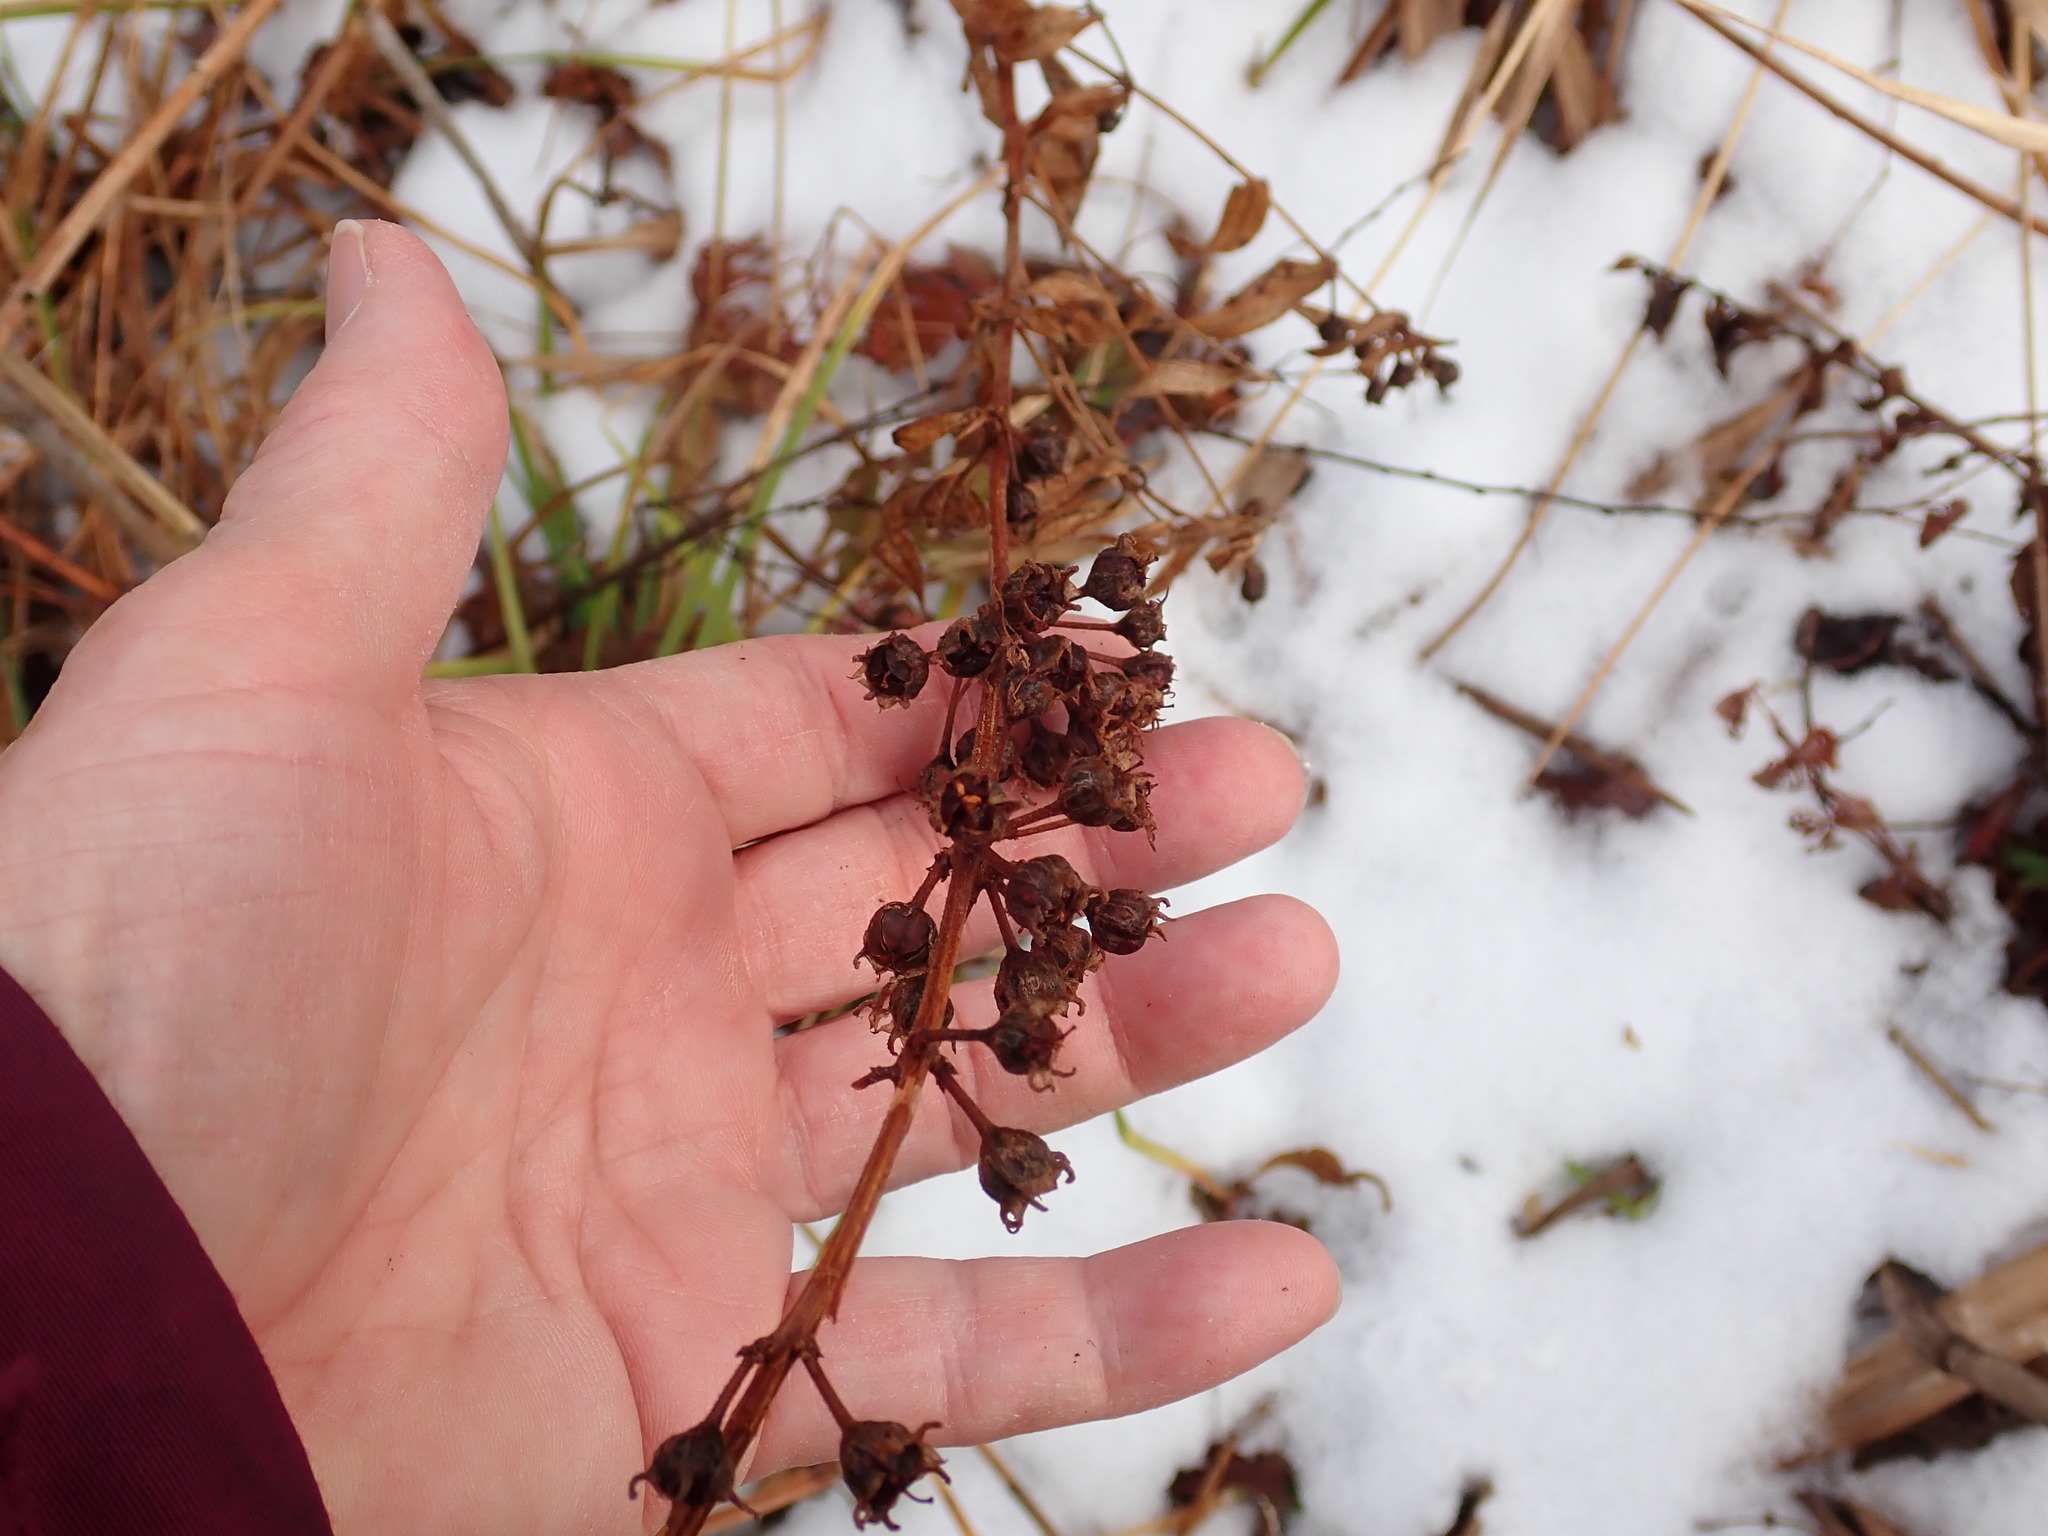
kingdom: Plantae
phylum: Tracheophyta
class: Magnoliopsida
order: Myrtales
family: Lythraceae
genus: Decodon
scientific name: Decodon verticillatus
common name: Hairy swamp loosestrife
